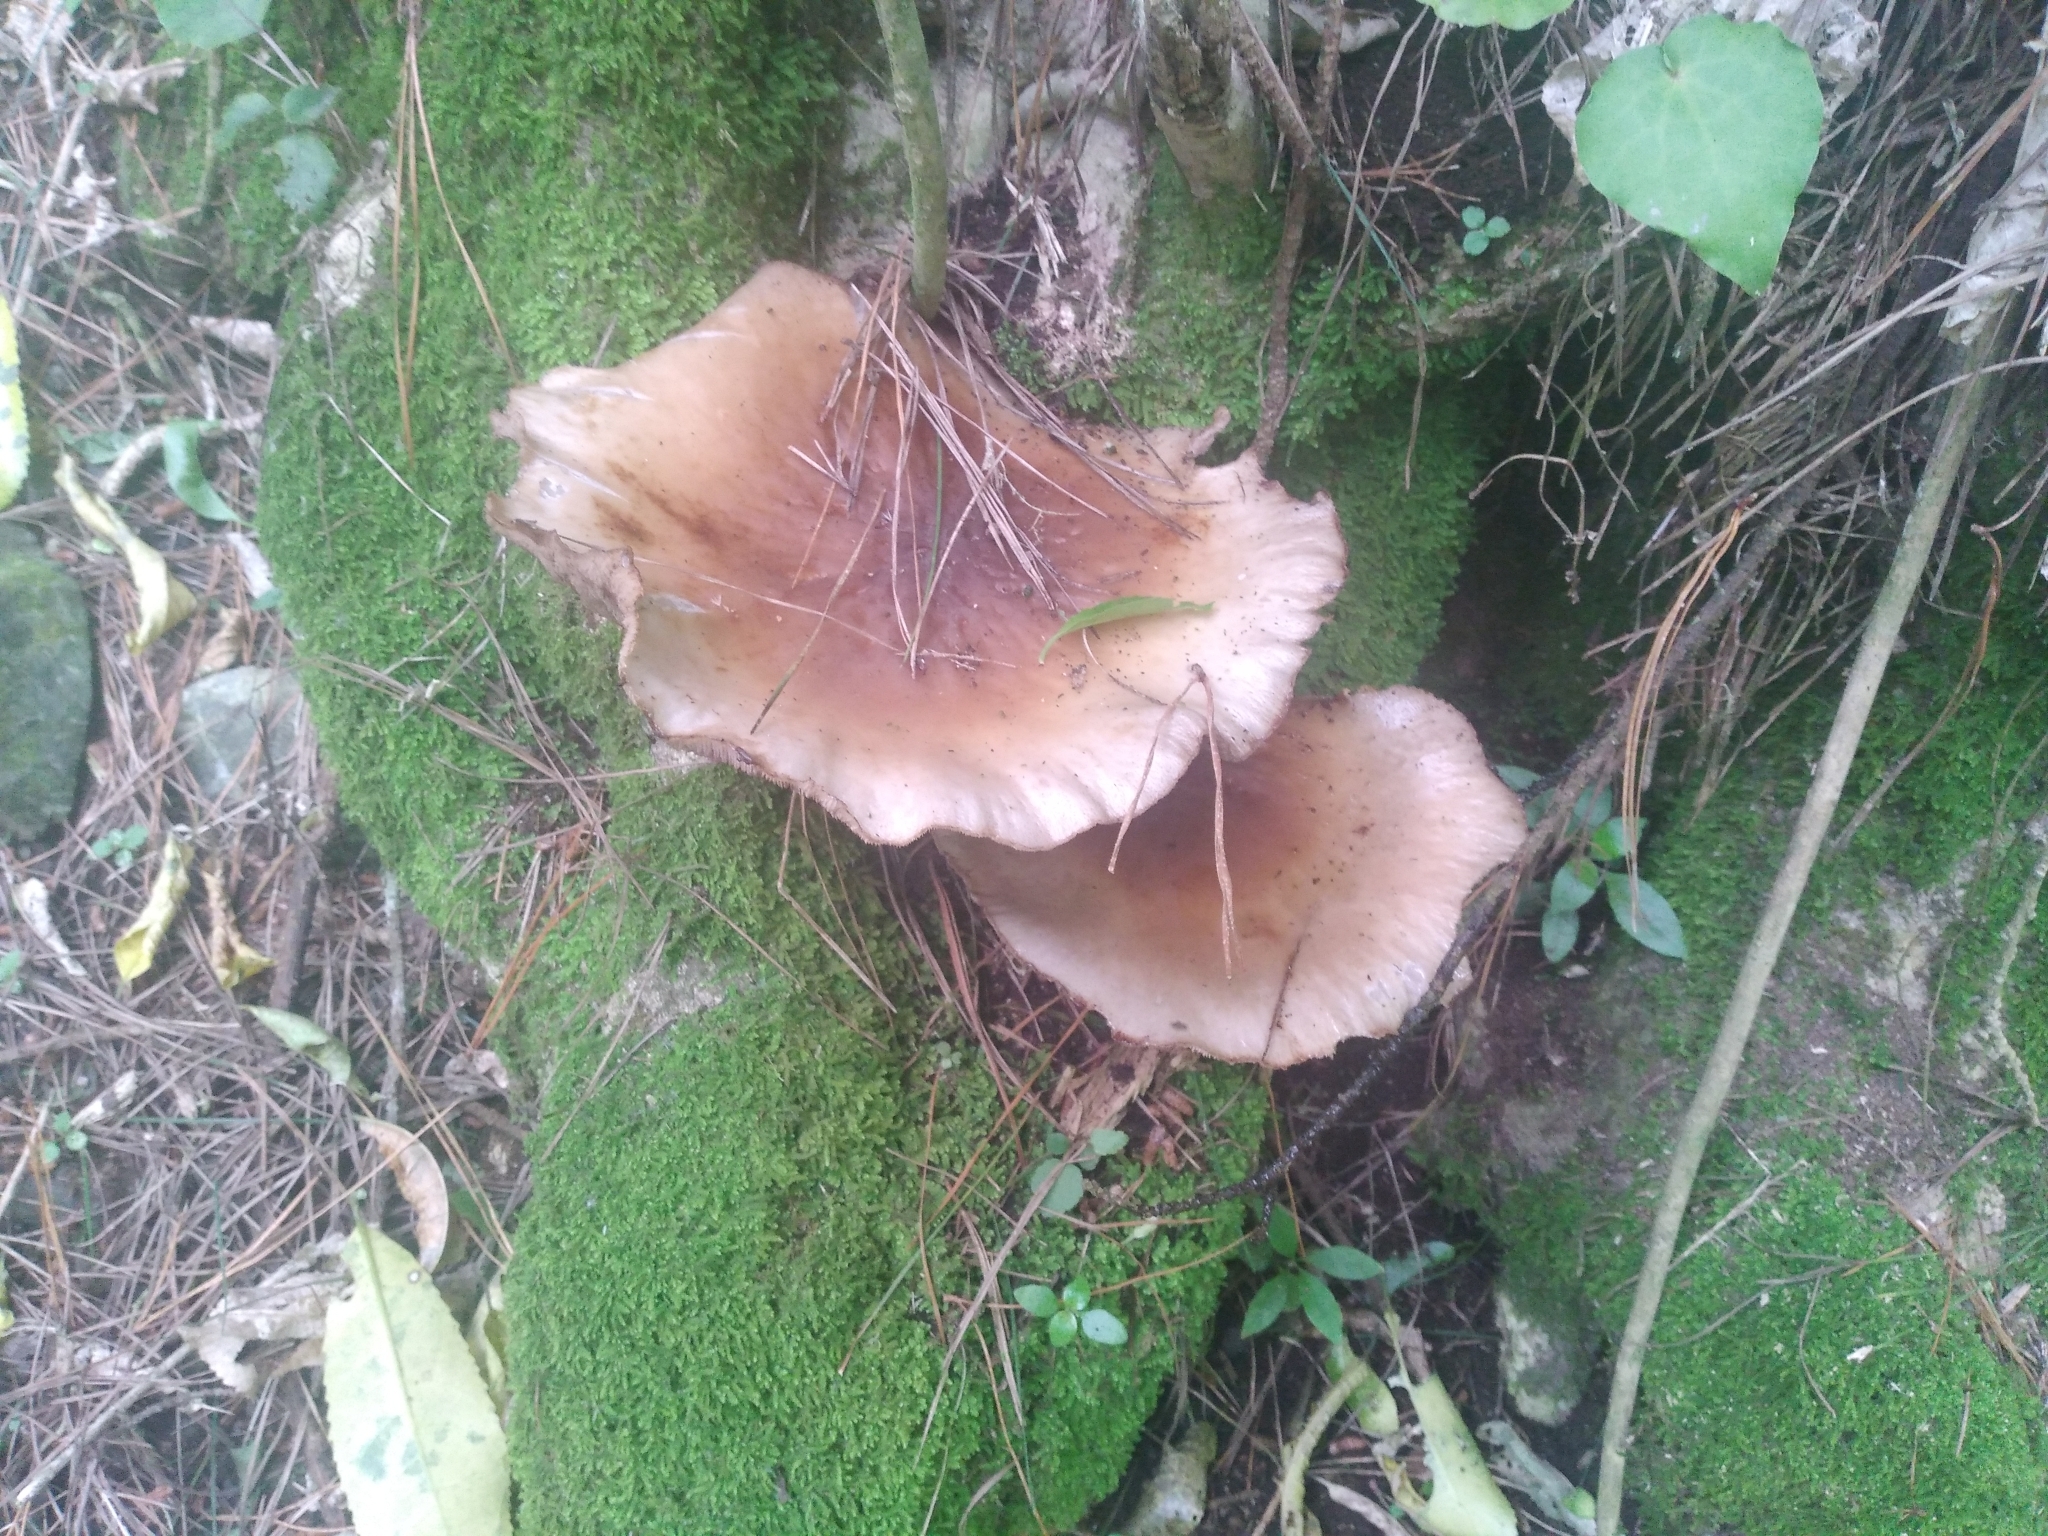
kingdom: Fungi
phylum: Basidiomycota
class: Agaricomycetes
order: Agaricales
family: Tubariaceae
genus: Cyclocybe
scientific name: Cyclocybe parasitica
